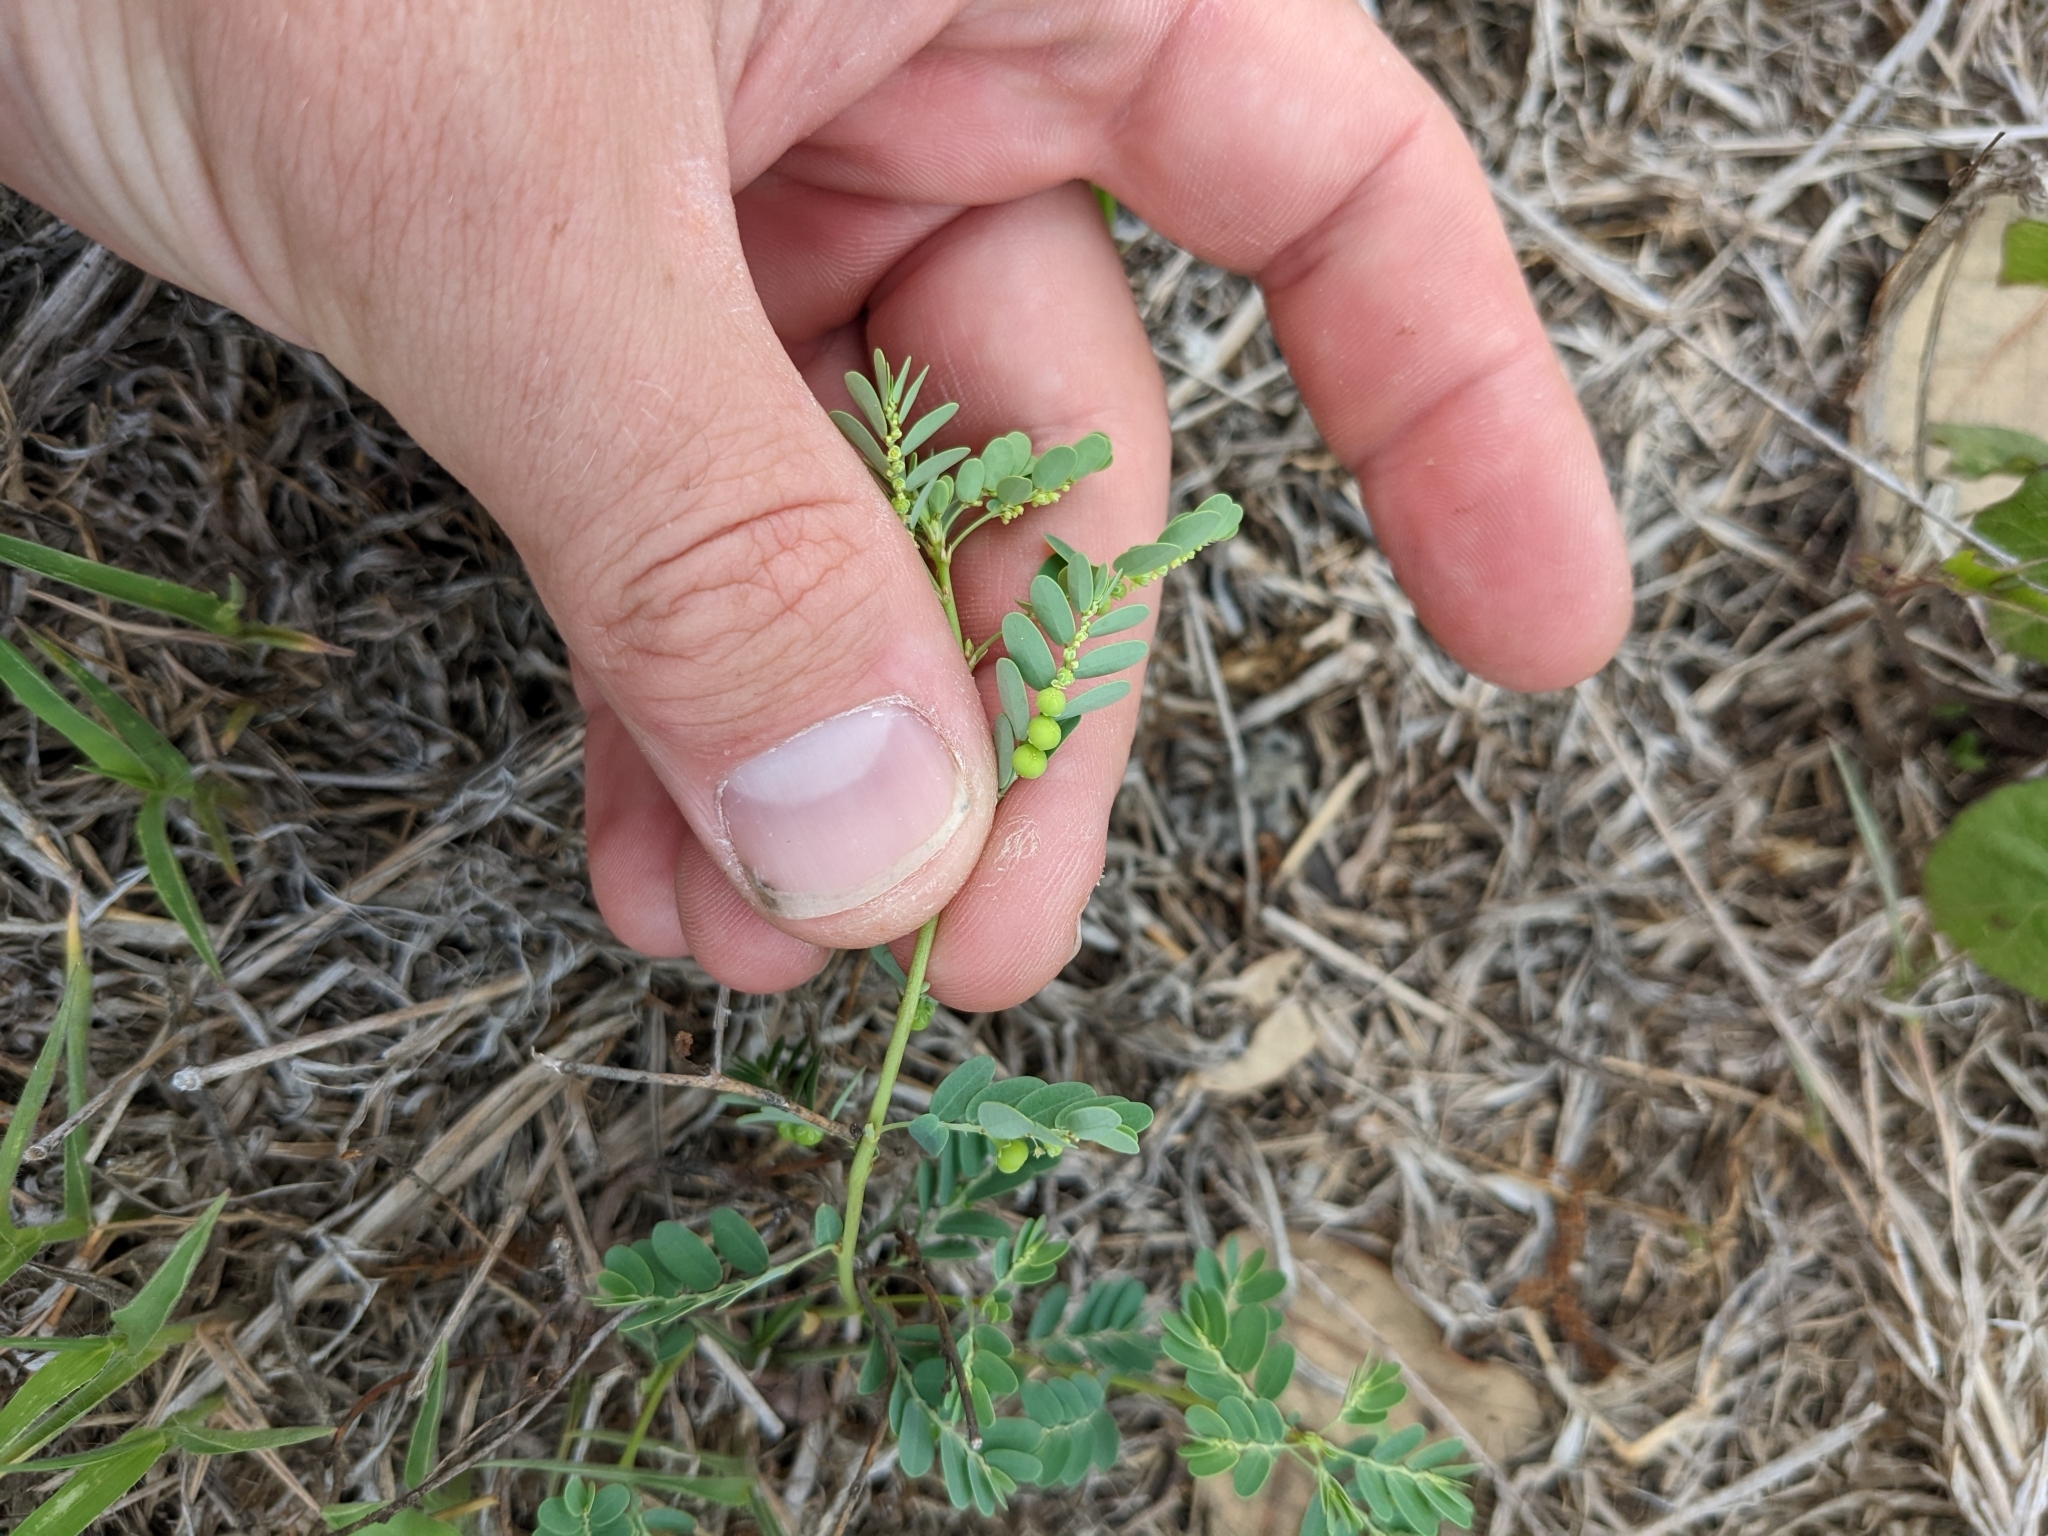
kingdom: Plantae
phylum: Tracheophyta
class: Magnoliopsida
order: Malpighiales
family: Phyllanthaceae
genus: Phyllanthus
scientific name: Phyllanthus urinaria
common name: Chamber bitter
